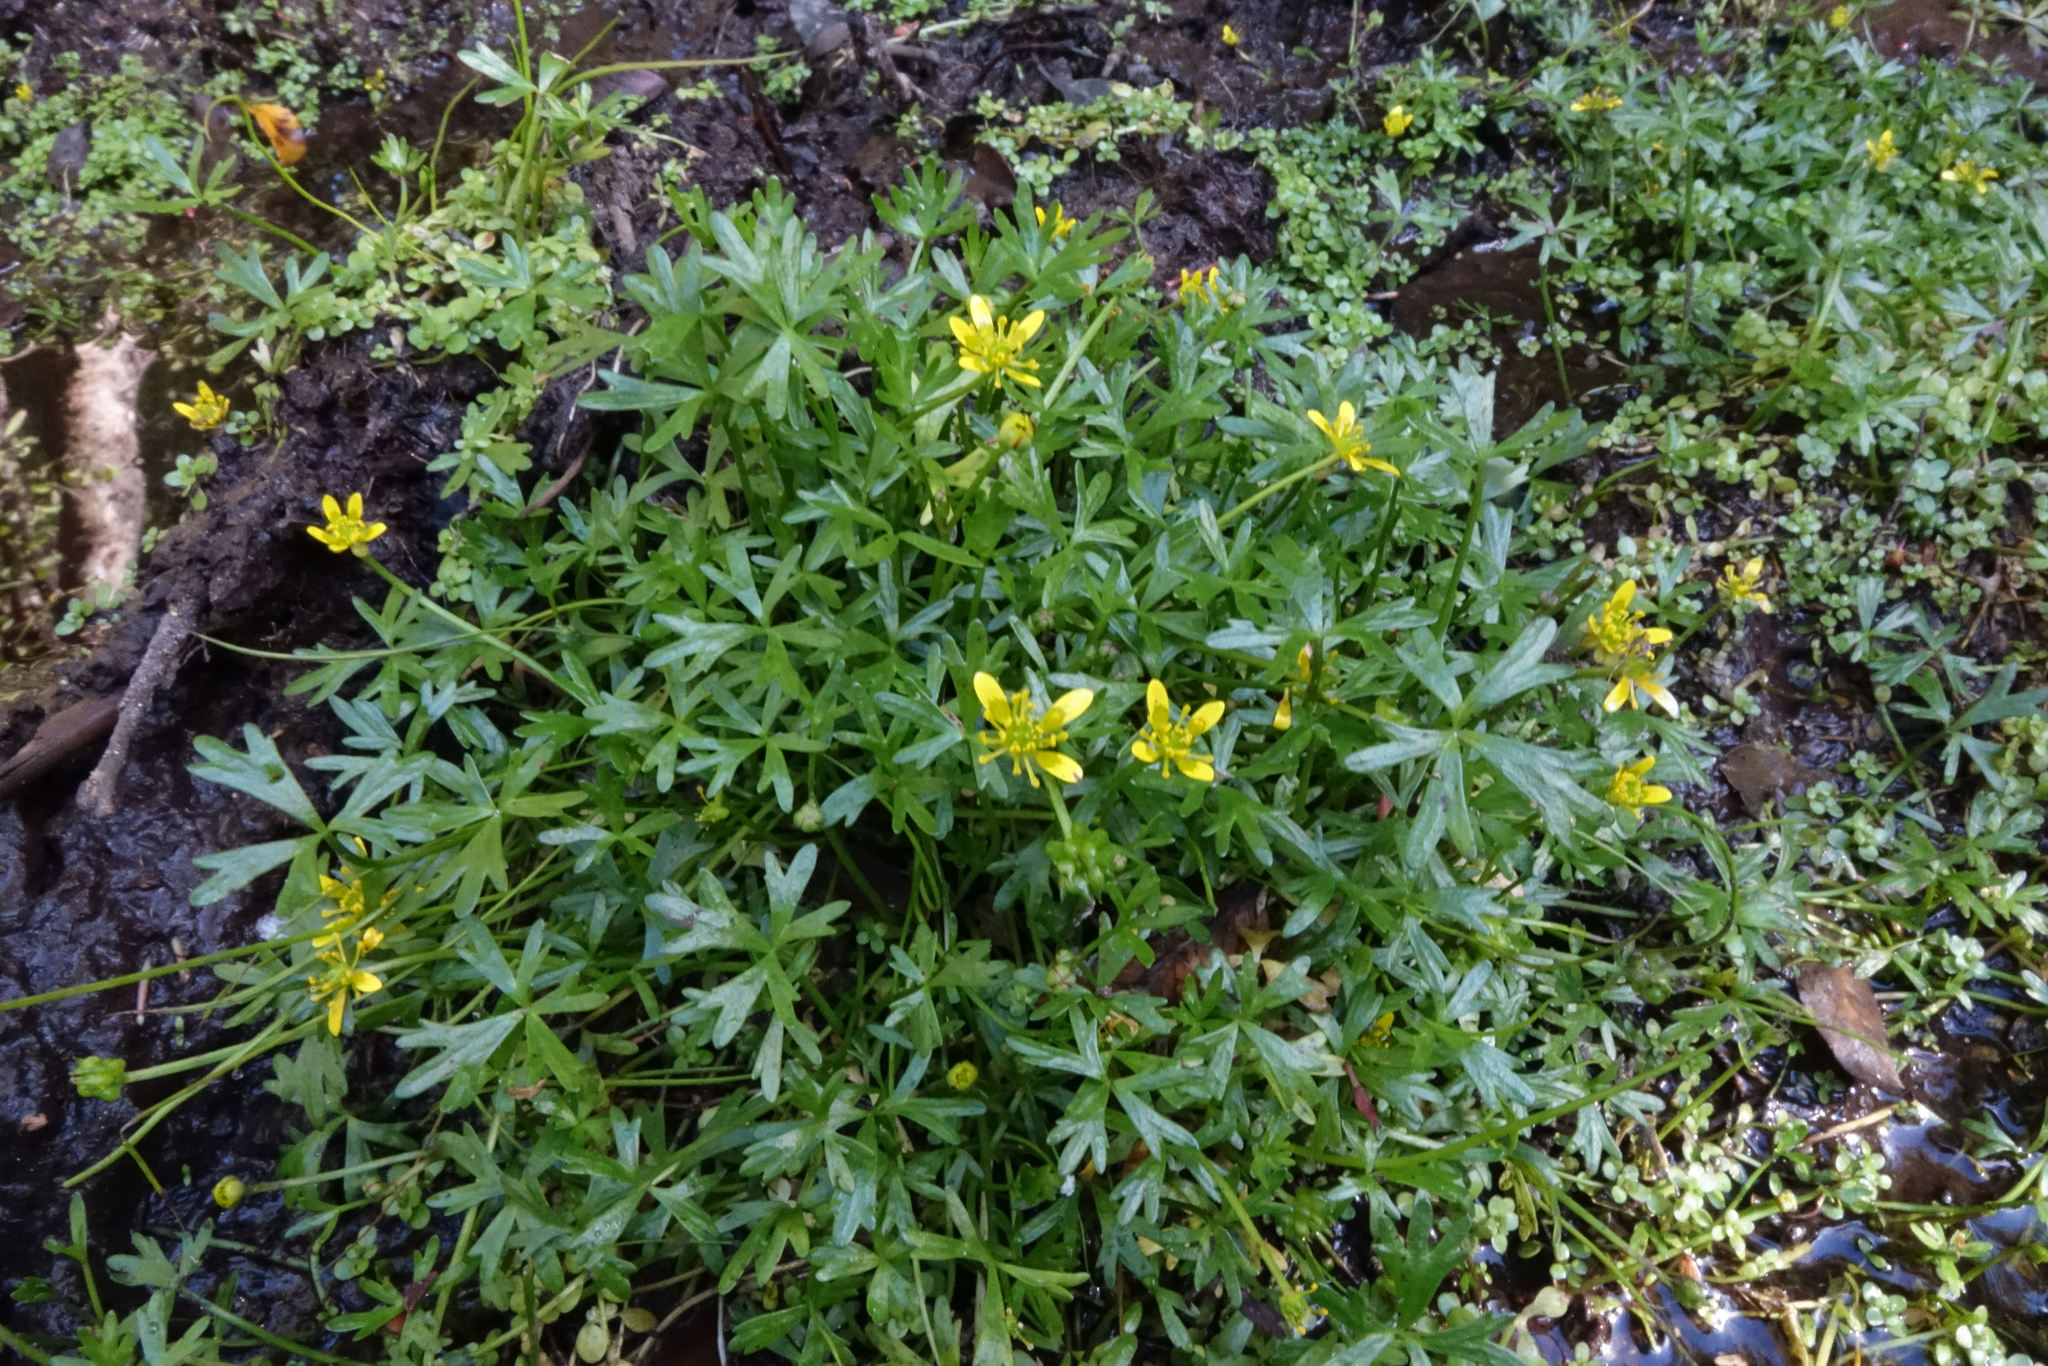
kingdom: Plantae
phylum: Tracheophyta
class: Magnoliopsida
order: Ranunculales
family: Ranunculaceae
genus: Ranunculus
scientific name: Ranunculus glabrifolius
